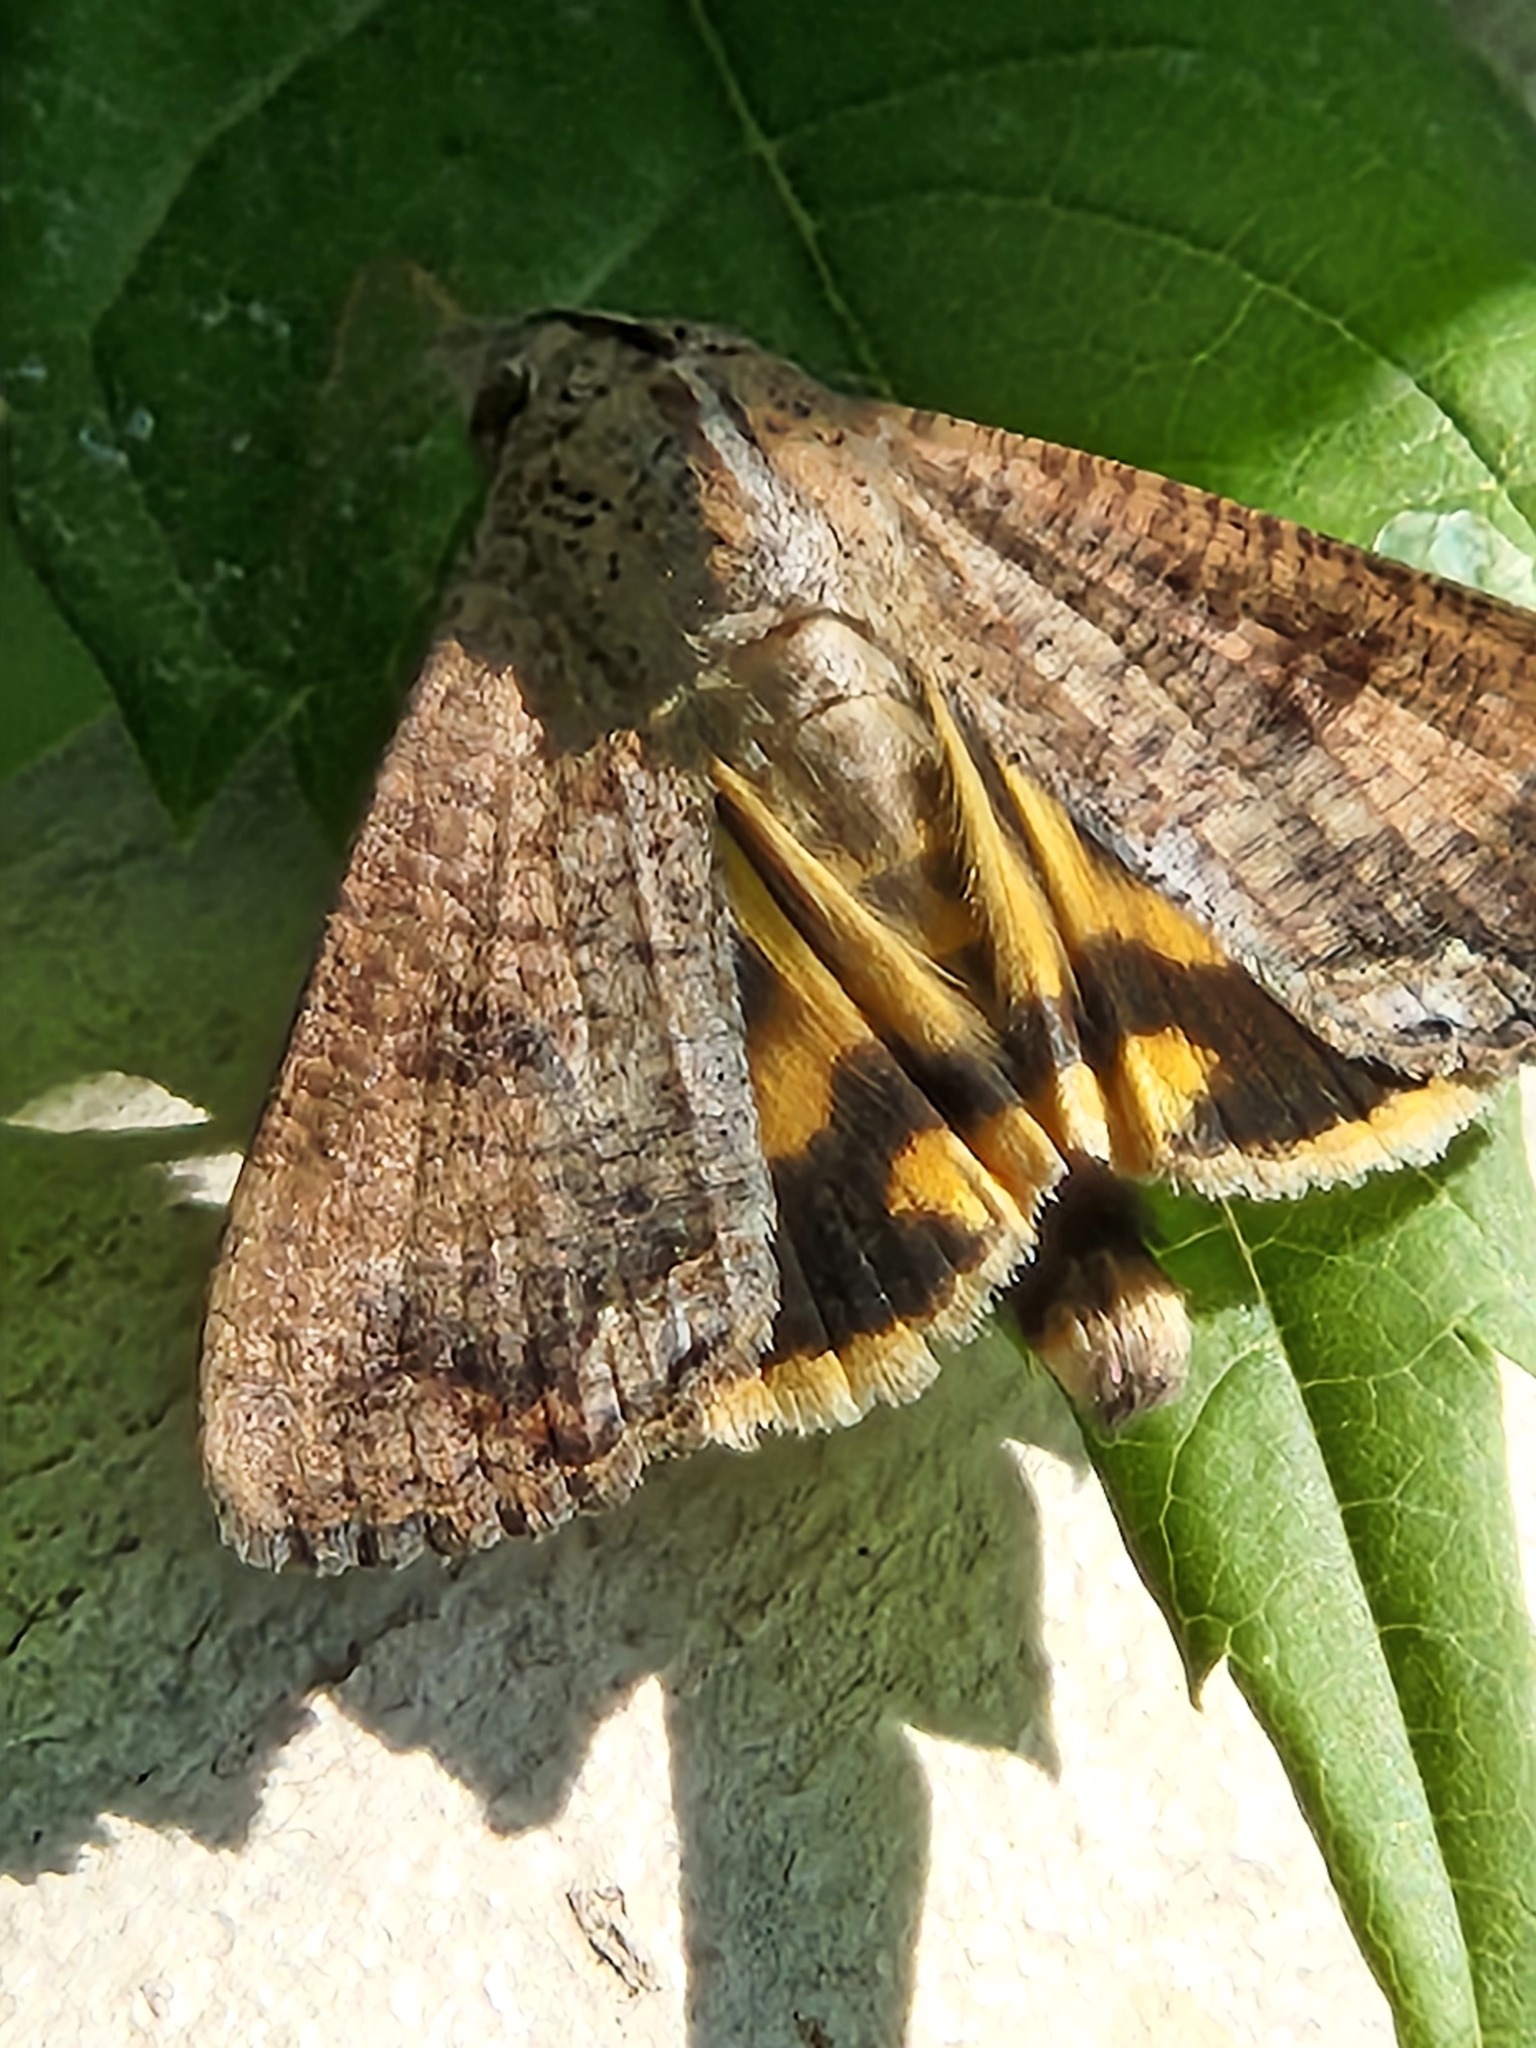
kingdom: Animalia
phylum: Arthropoda
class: Insecta
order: Lepidoptera
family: Erebidae
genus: Hypocala
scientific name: Hypocala andremona
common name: Hypocala moth
